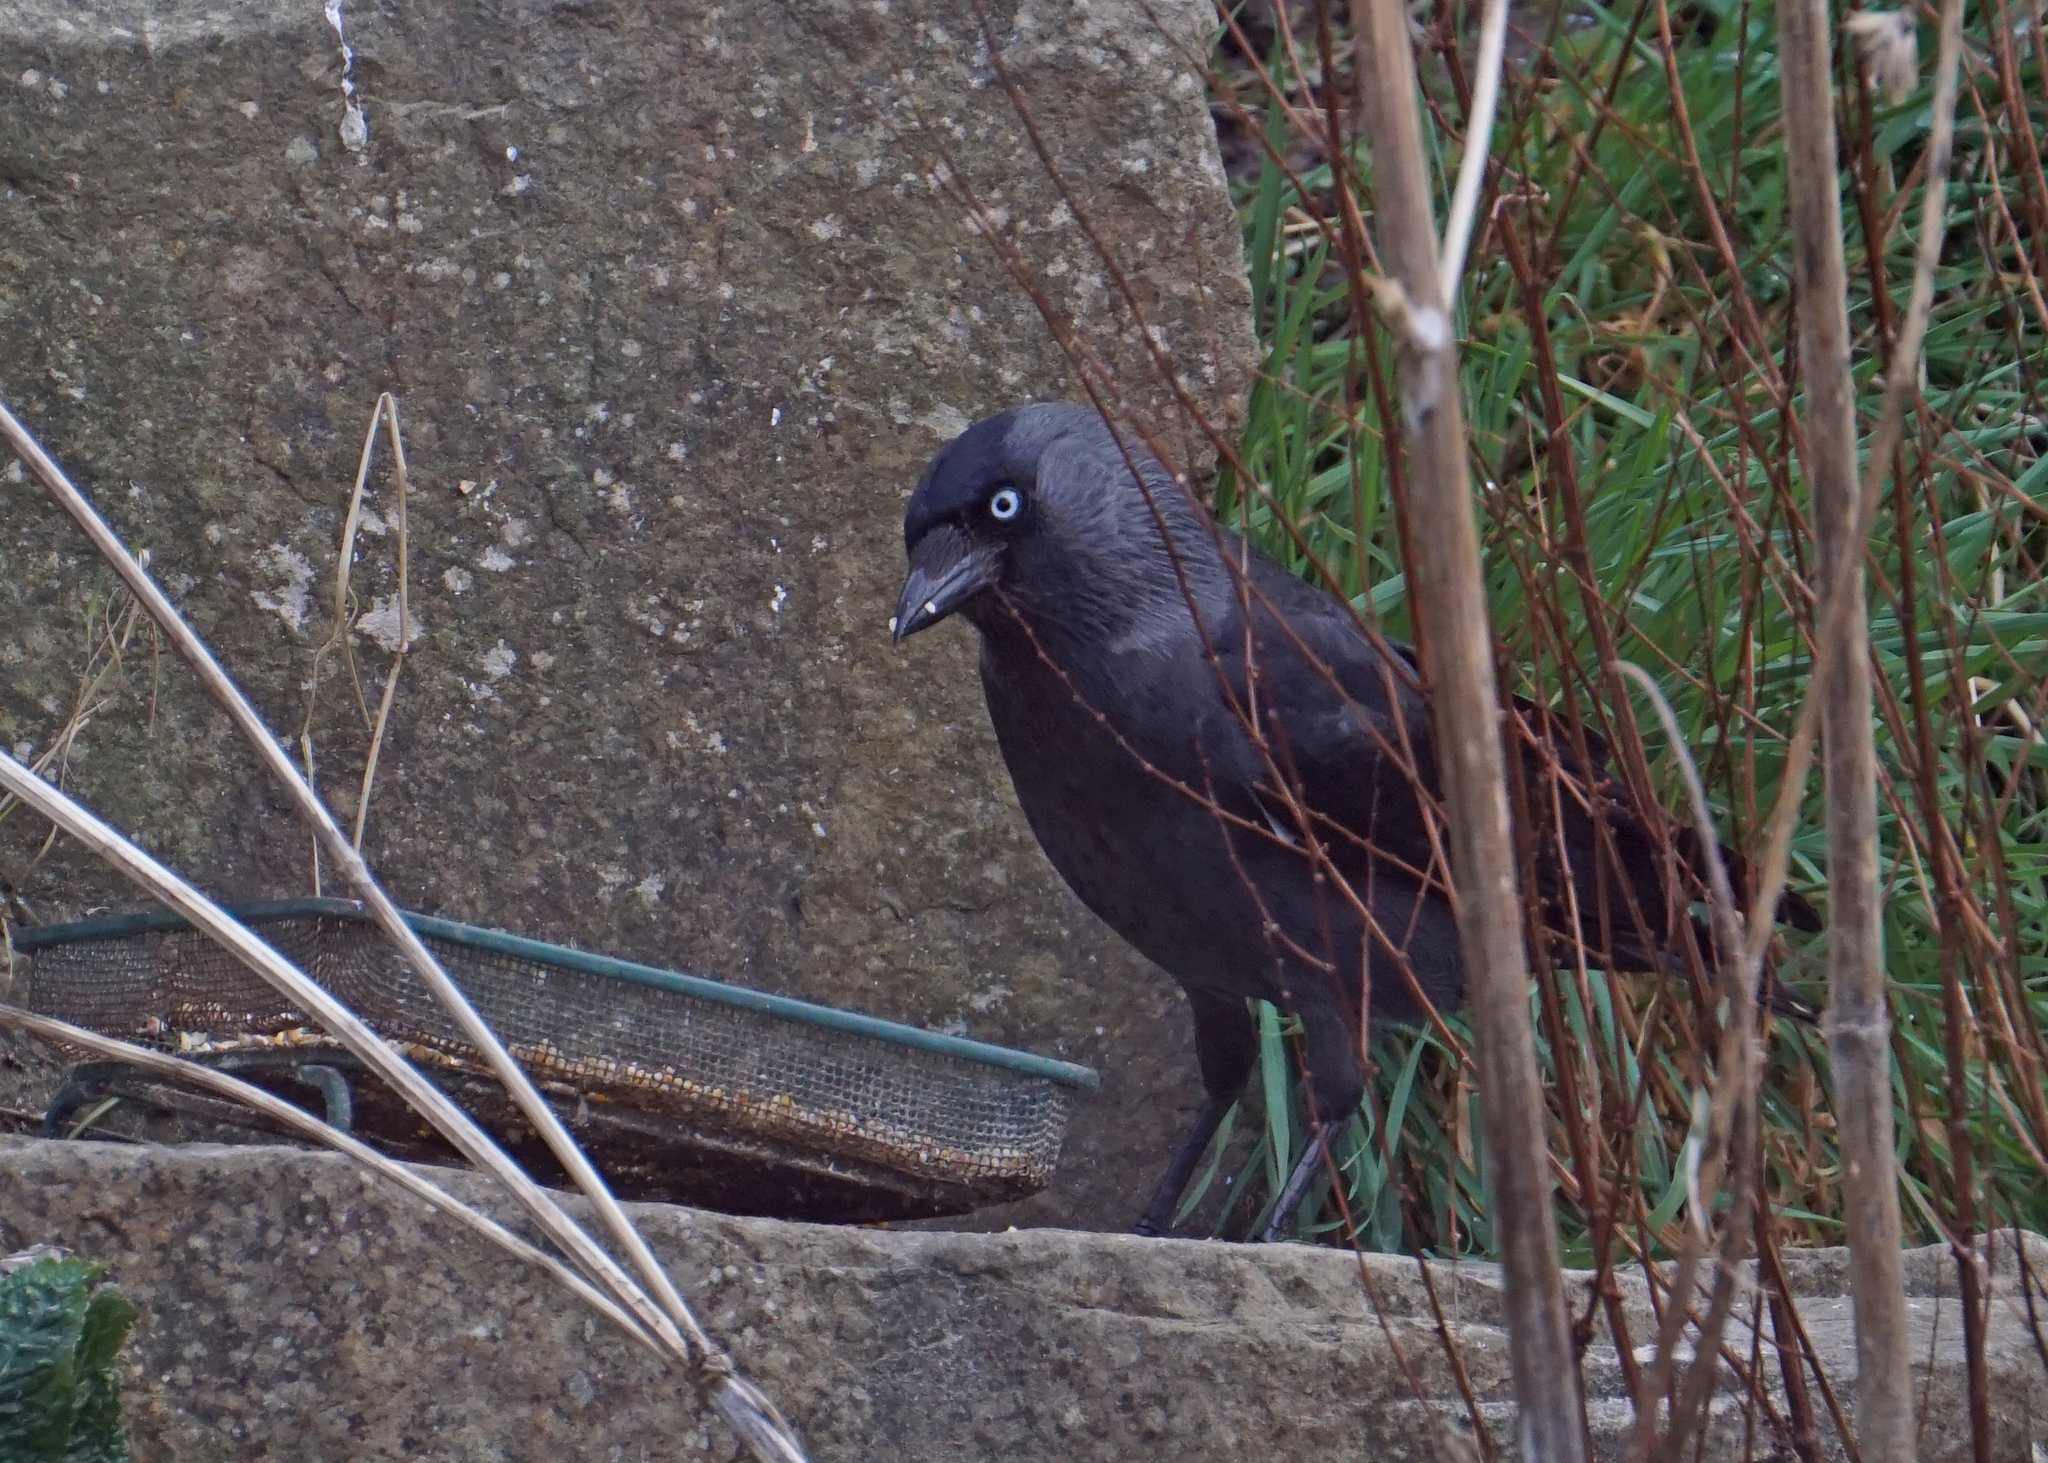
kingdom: Animalia
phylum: Chordata
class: Aves
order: Passeriformes
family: Corvidae
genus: Coloeus
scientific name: Coloeus monedula
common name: Western jackdaw
